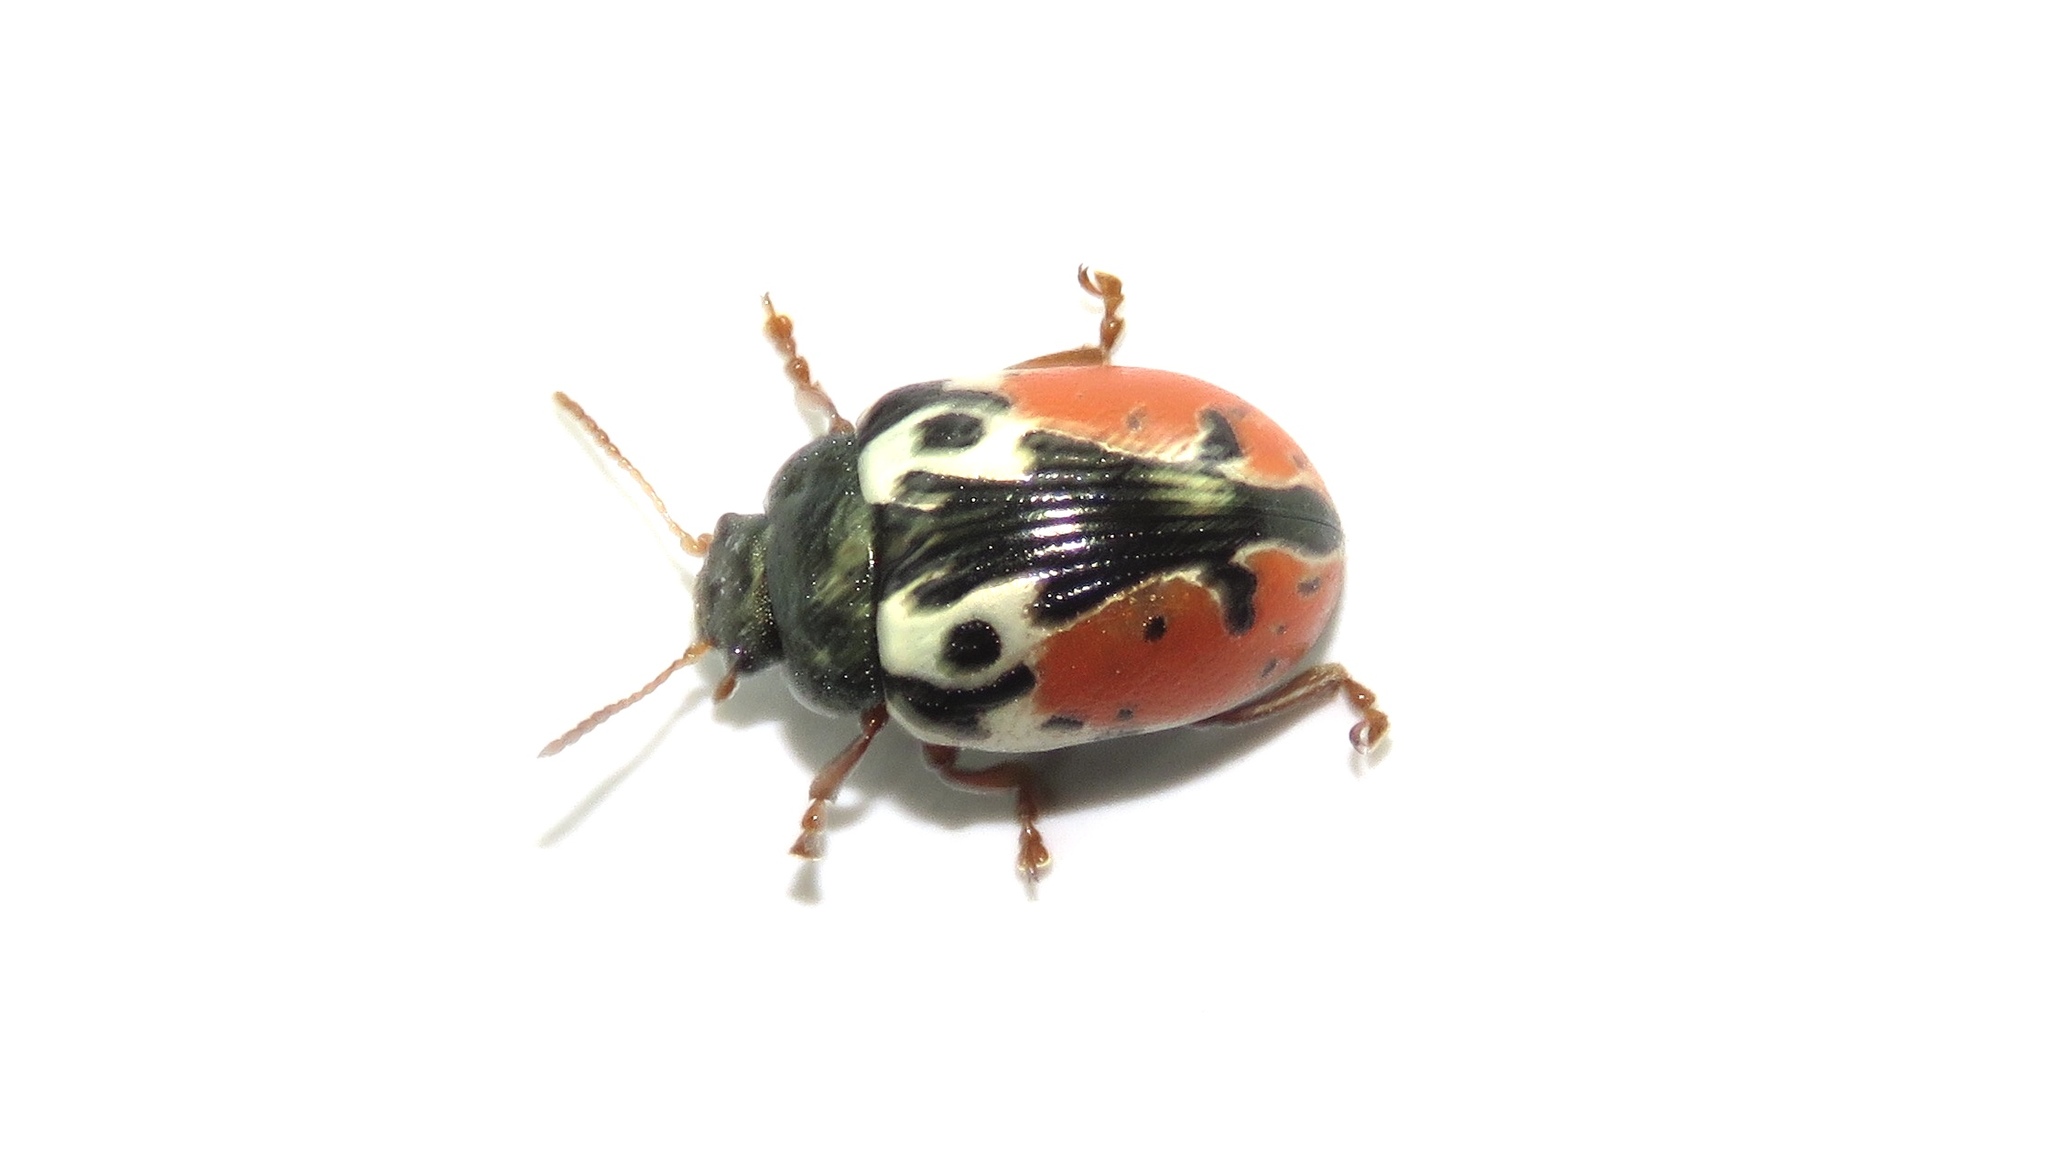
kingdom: Animalia
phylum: Arthropoda
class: Insecta
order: Coleoptera
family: Chrysomelidae
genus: Calligrapha
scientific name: Calligrapha rowena
